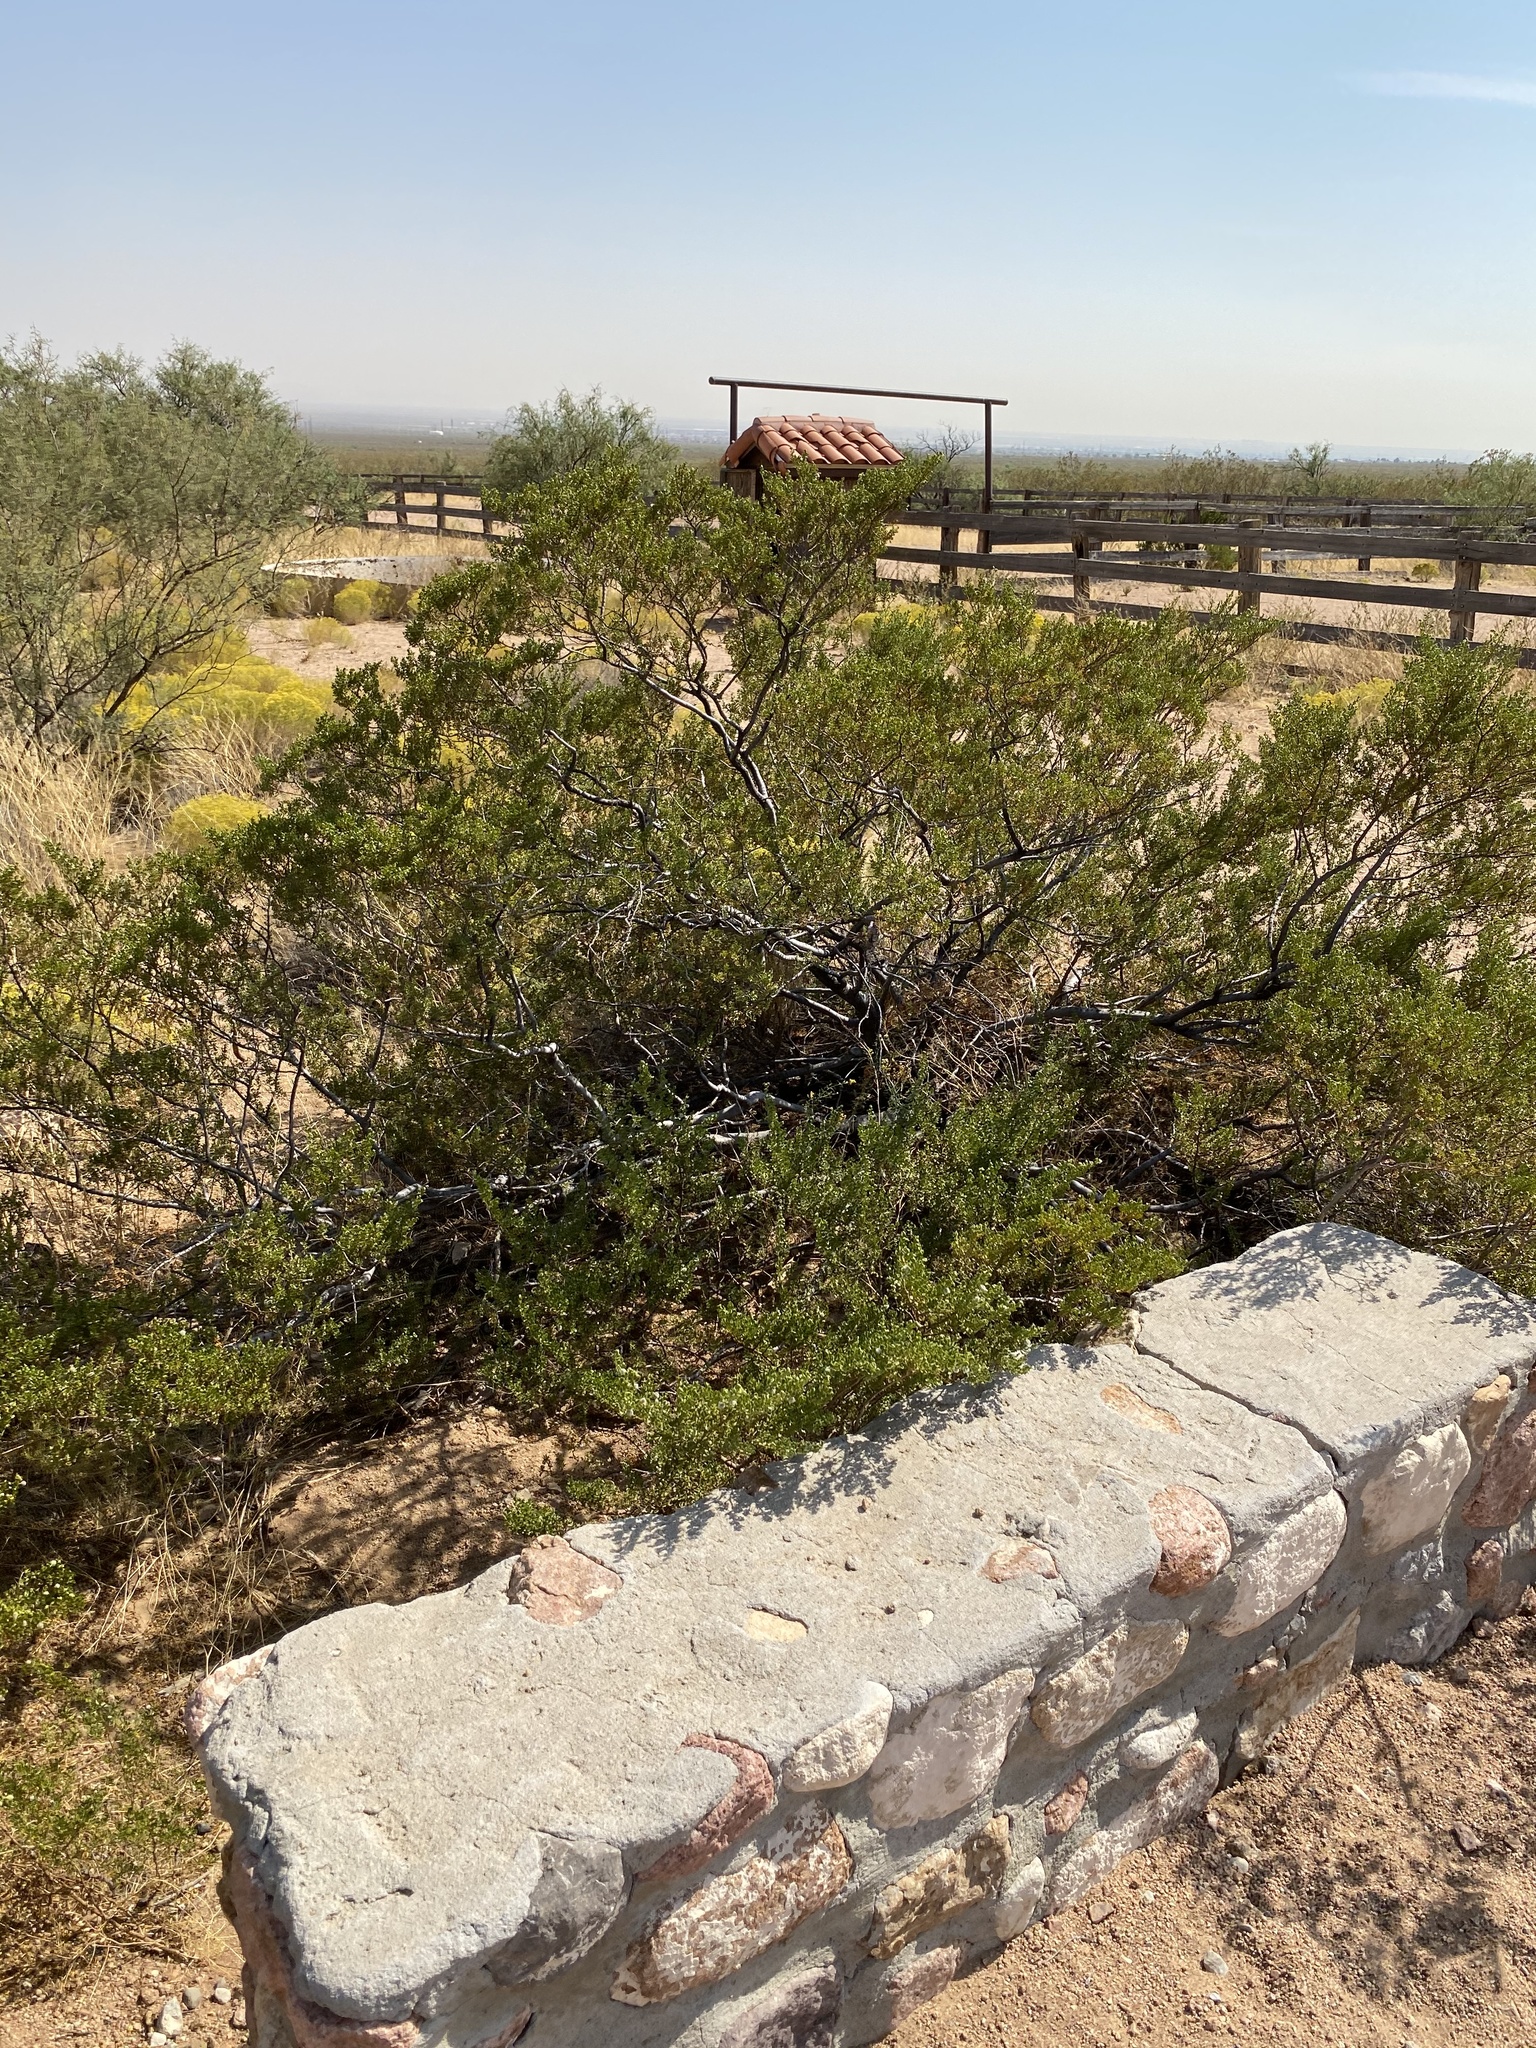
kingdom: Plantae
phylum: Tracheophyta
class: Magnoliopsida
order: Zygophyllales
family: Zygophyllaceae
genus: Larrea
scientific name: Larrea tridentata
